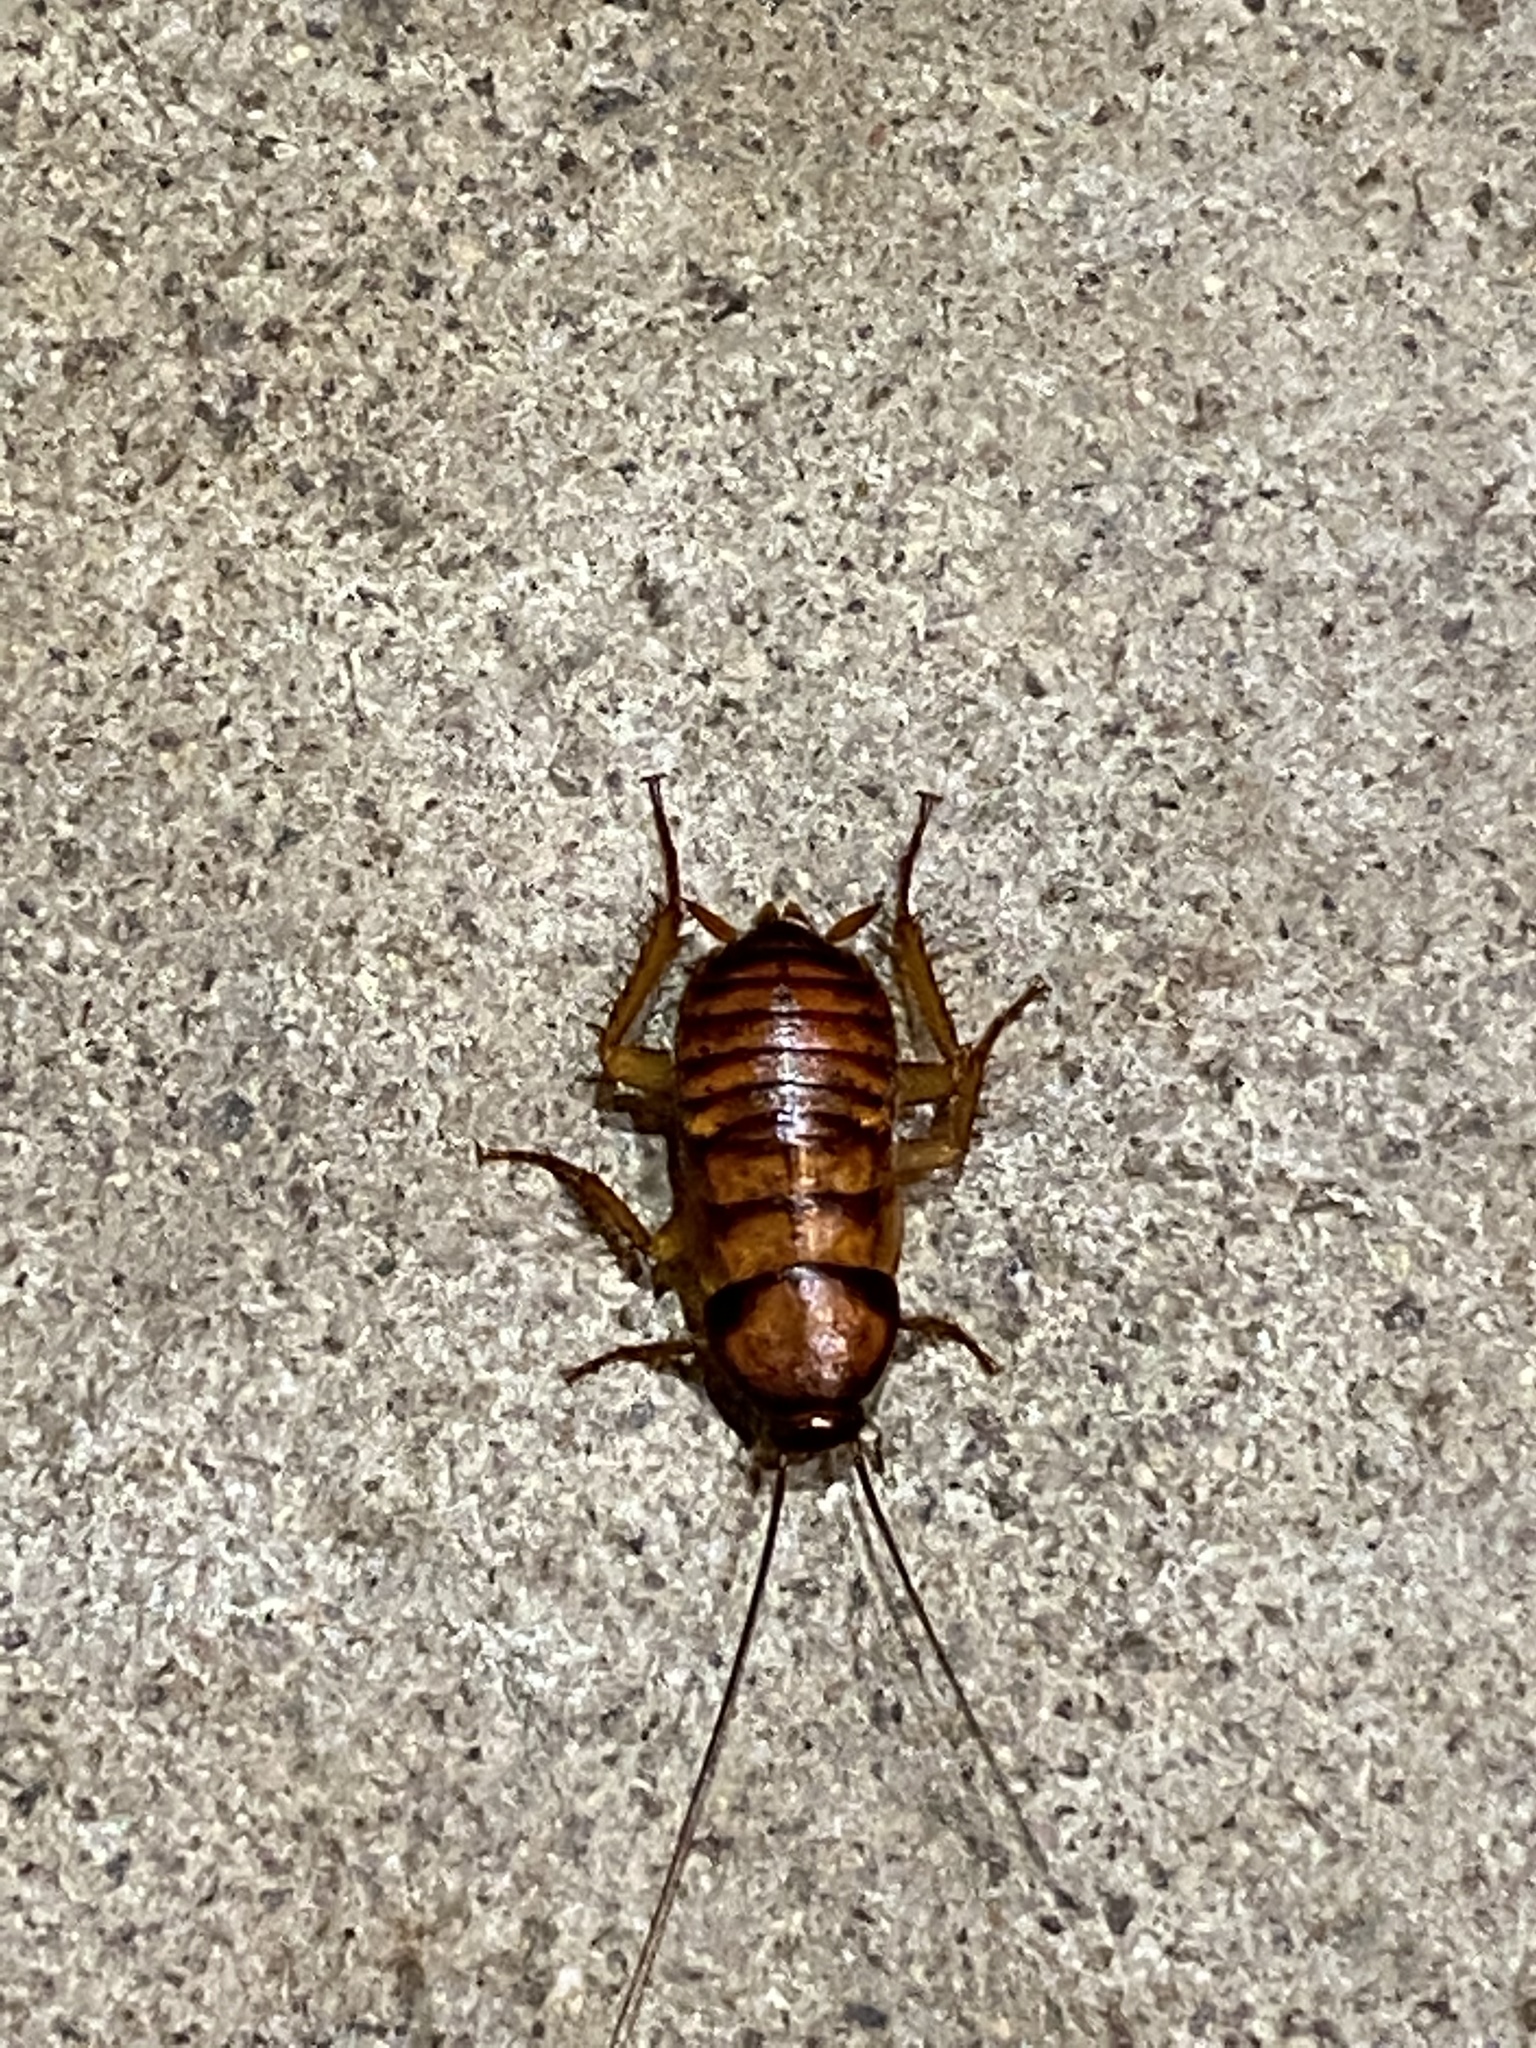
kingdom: Animalia
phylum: Arthropoda
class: Insecta
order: Blattodea
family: Blattidae
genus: Periplaneta
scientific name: Periplaneta americana
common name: American cockroach
